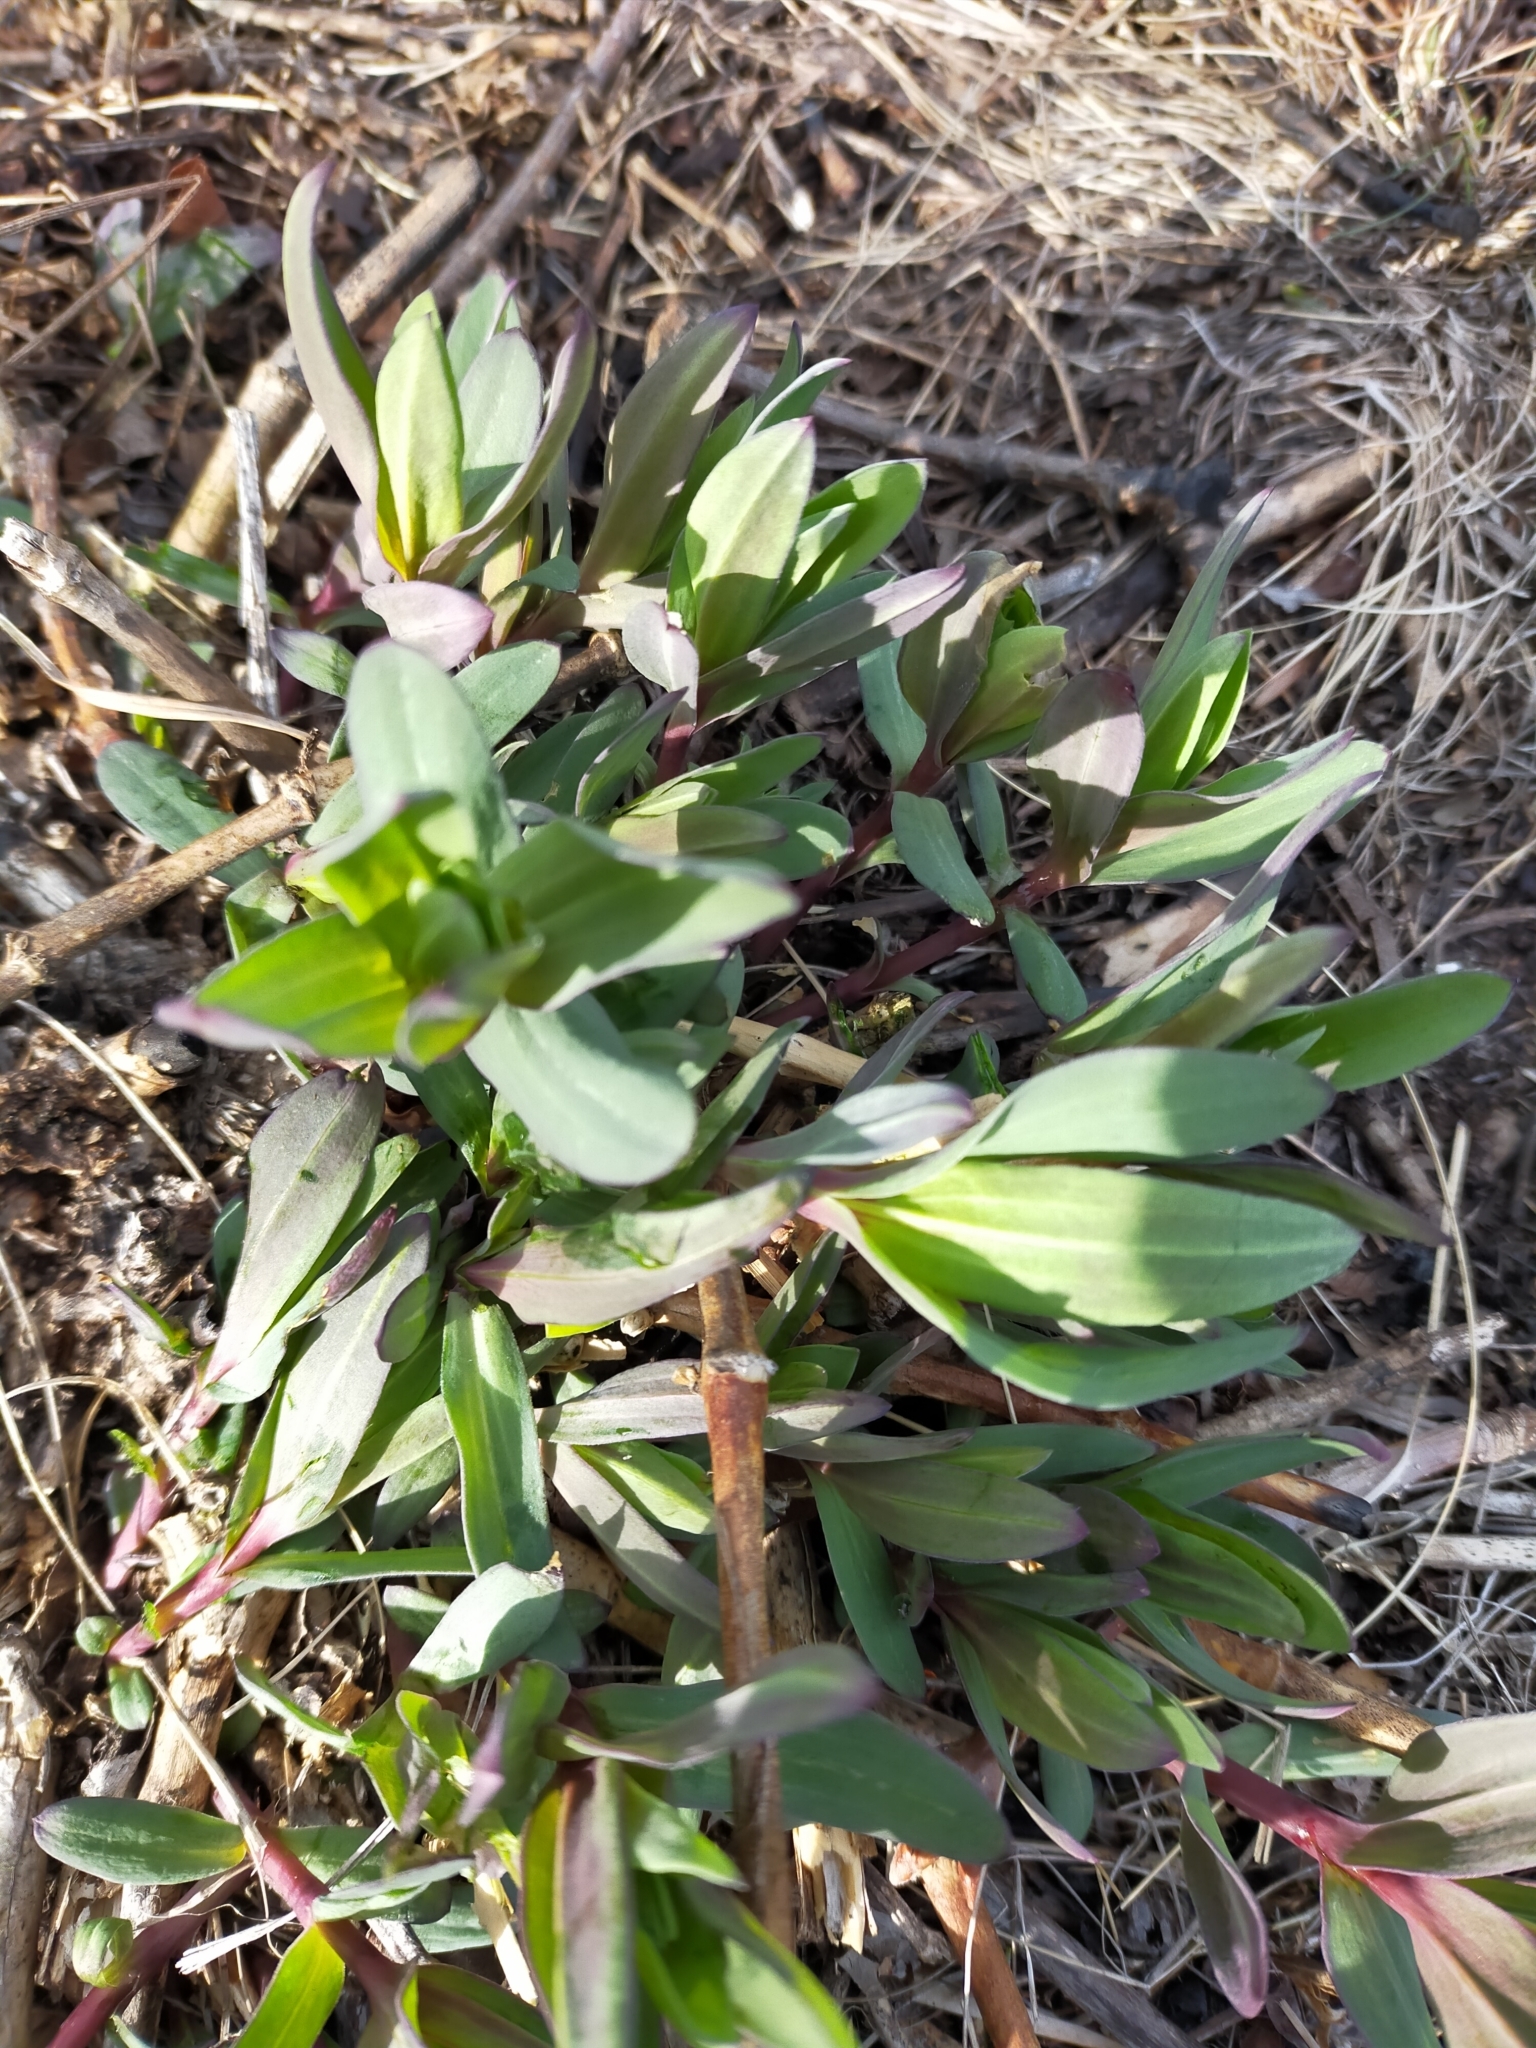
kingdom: Plantae
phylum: Tracheophyta
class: Magnoliopsida
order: Caryophyllales
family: Caryophyllaceae
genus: Gypsophila
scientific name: Gypsophila pacifica
